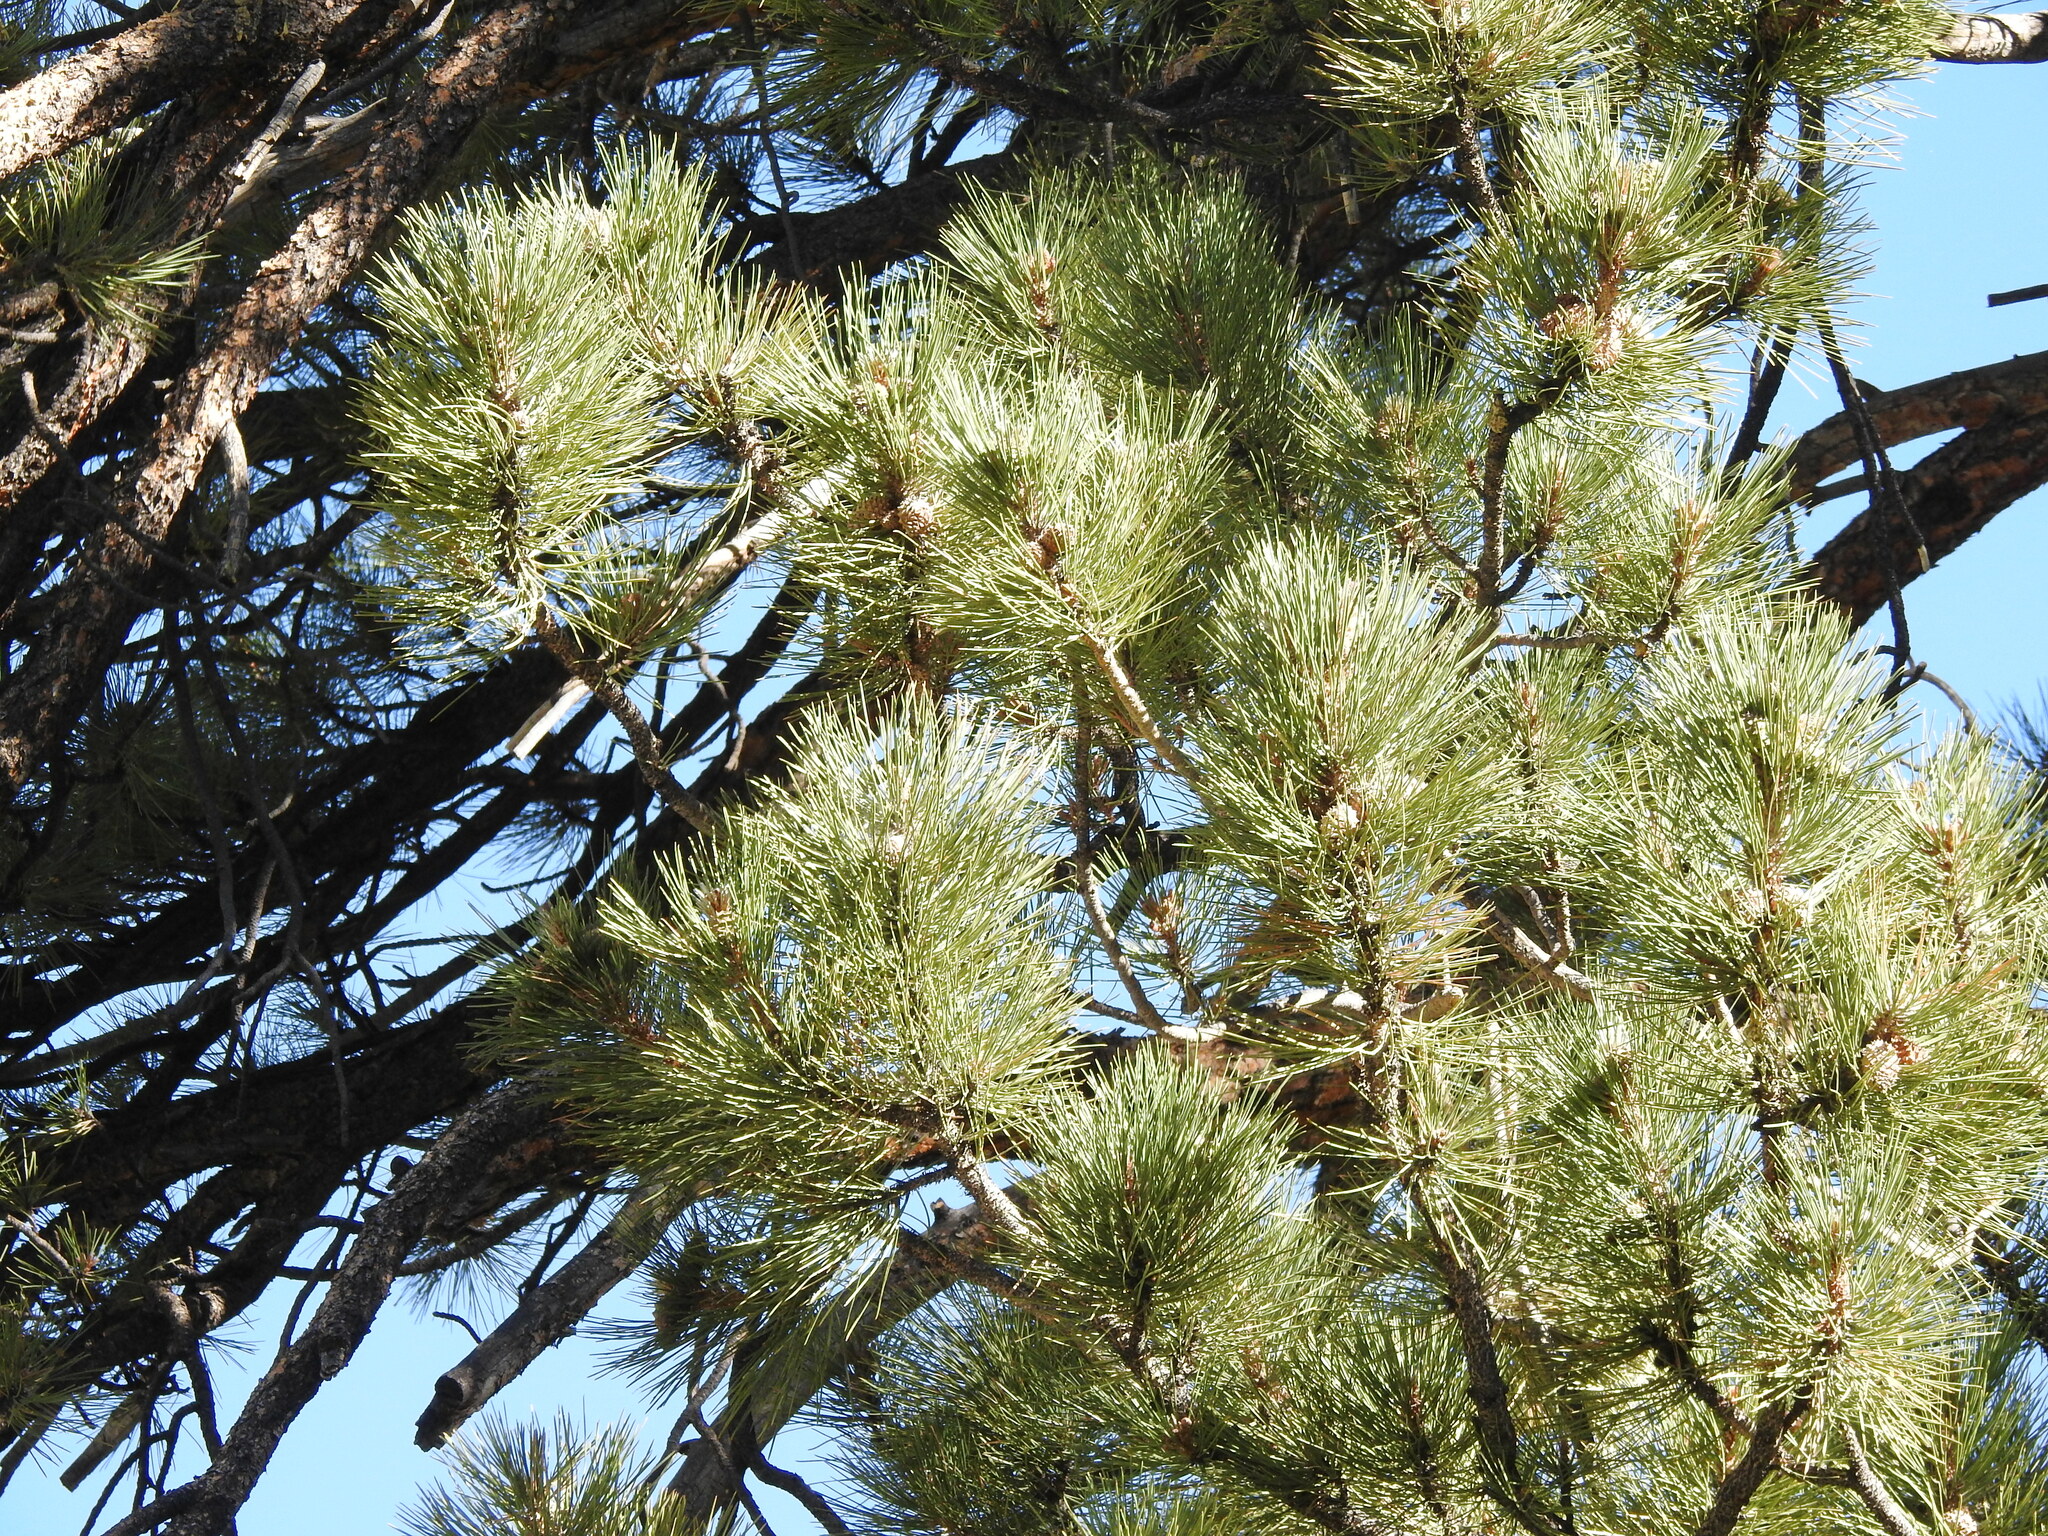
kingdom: Plantae
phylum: Tracheophyta
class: Pinopsida
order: Pinales
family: Pinaceae
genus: Pinus
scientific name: Pinus ponderosa
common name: Western yellow-pine
